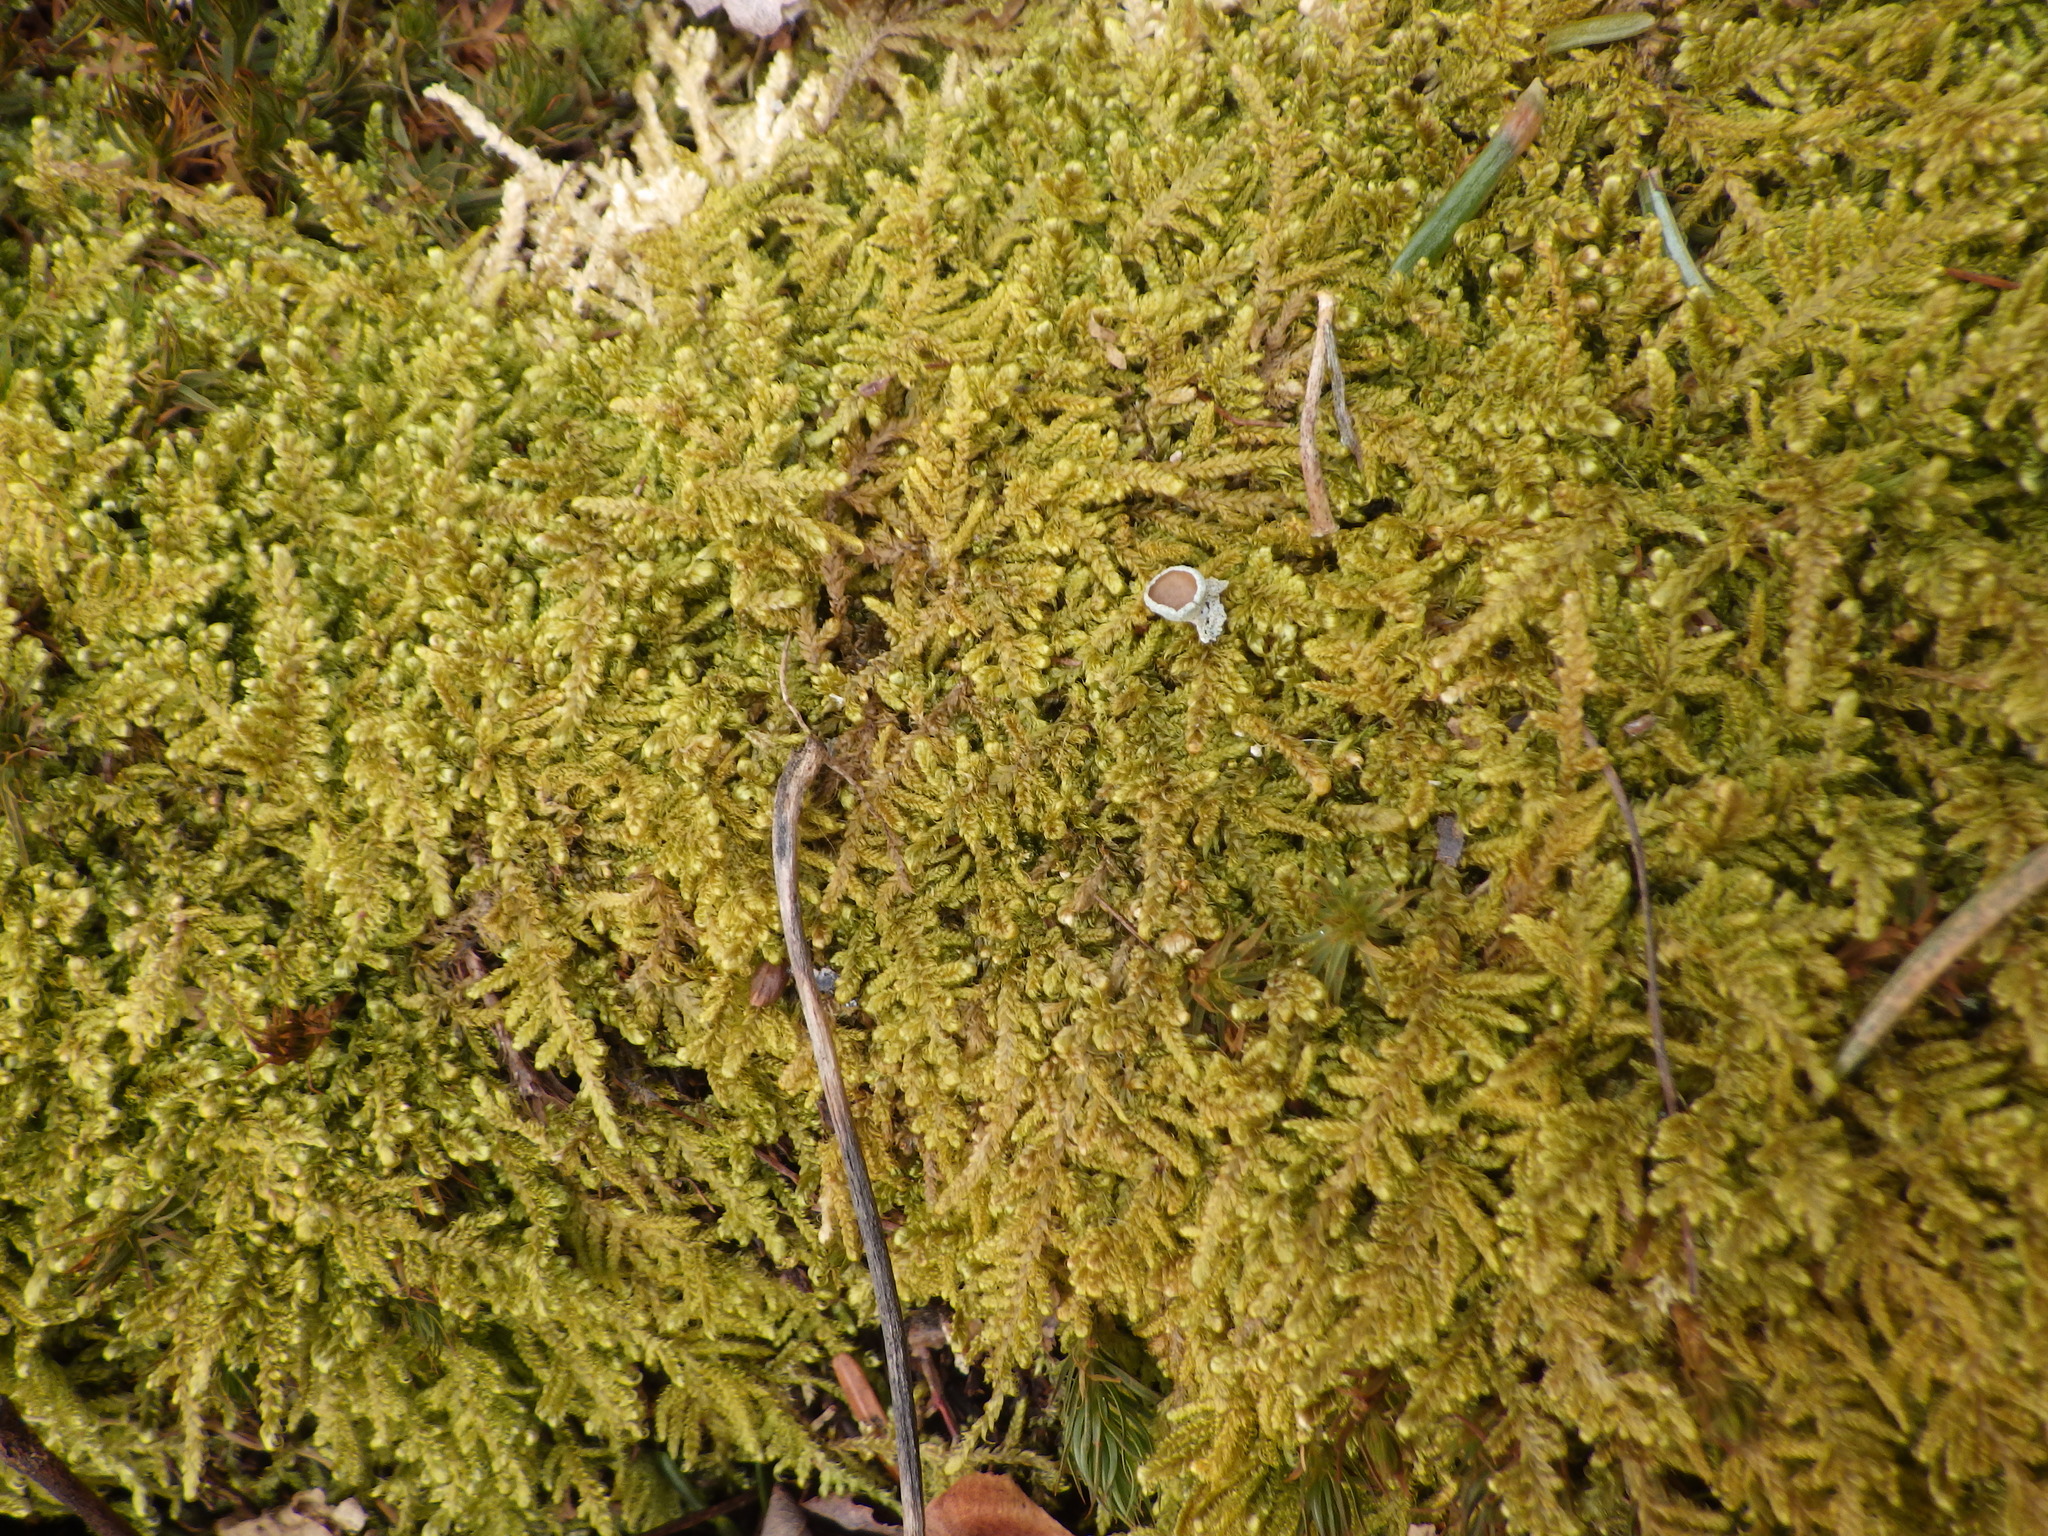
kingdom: Plantae
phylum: Bryophyta
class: Bryopsida
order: Hypnales
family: Callicladiaceae
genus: Callicladium
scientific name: Callicladium imponens
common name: Brocade moss
